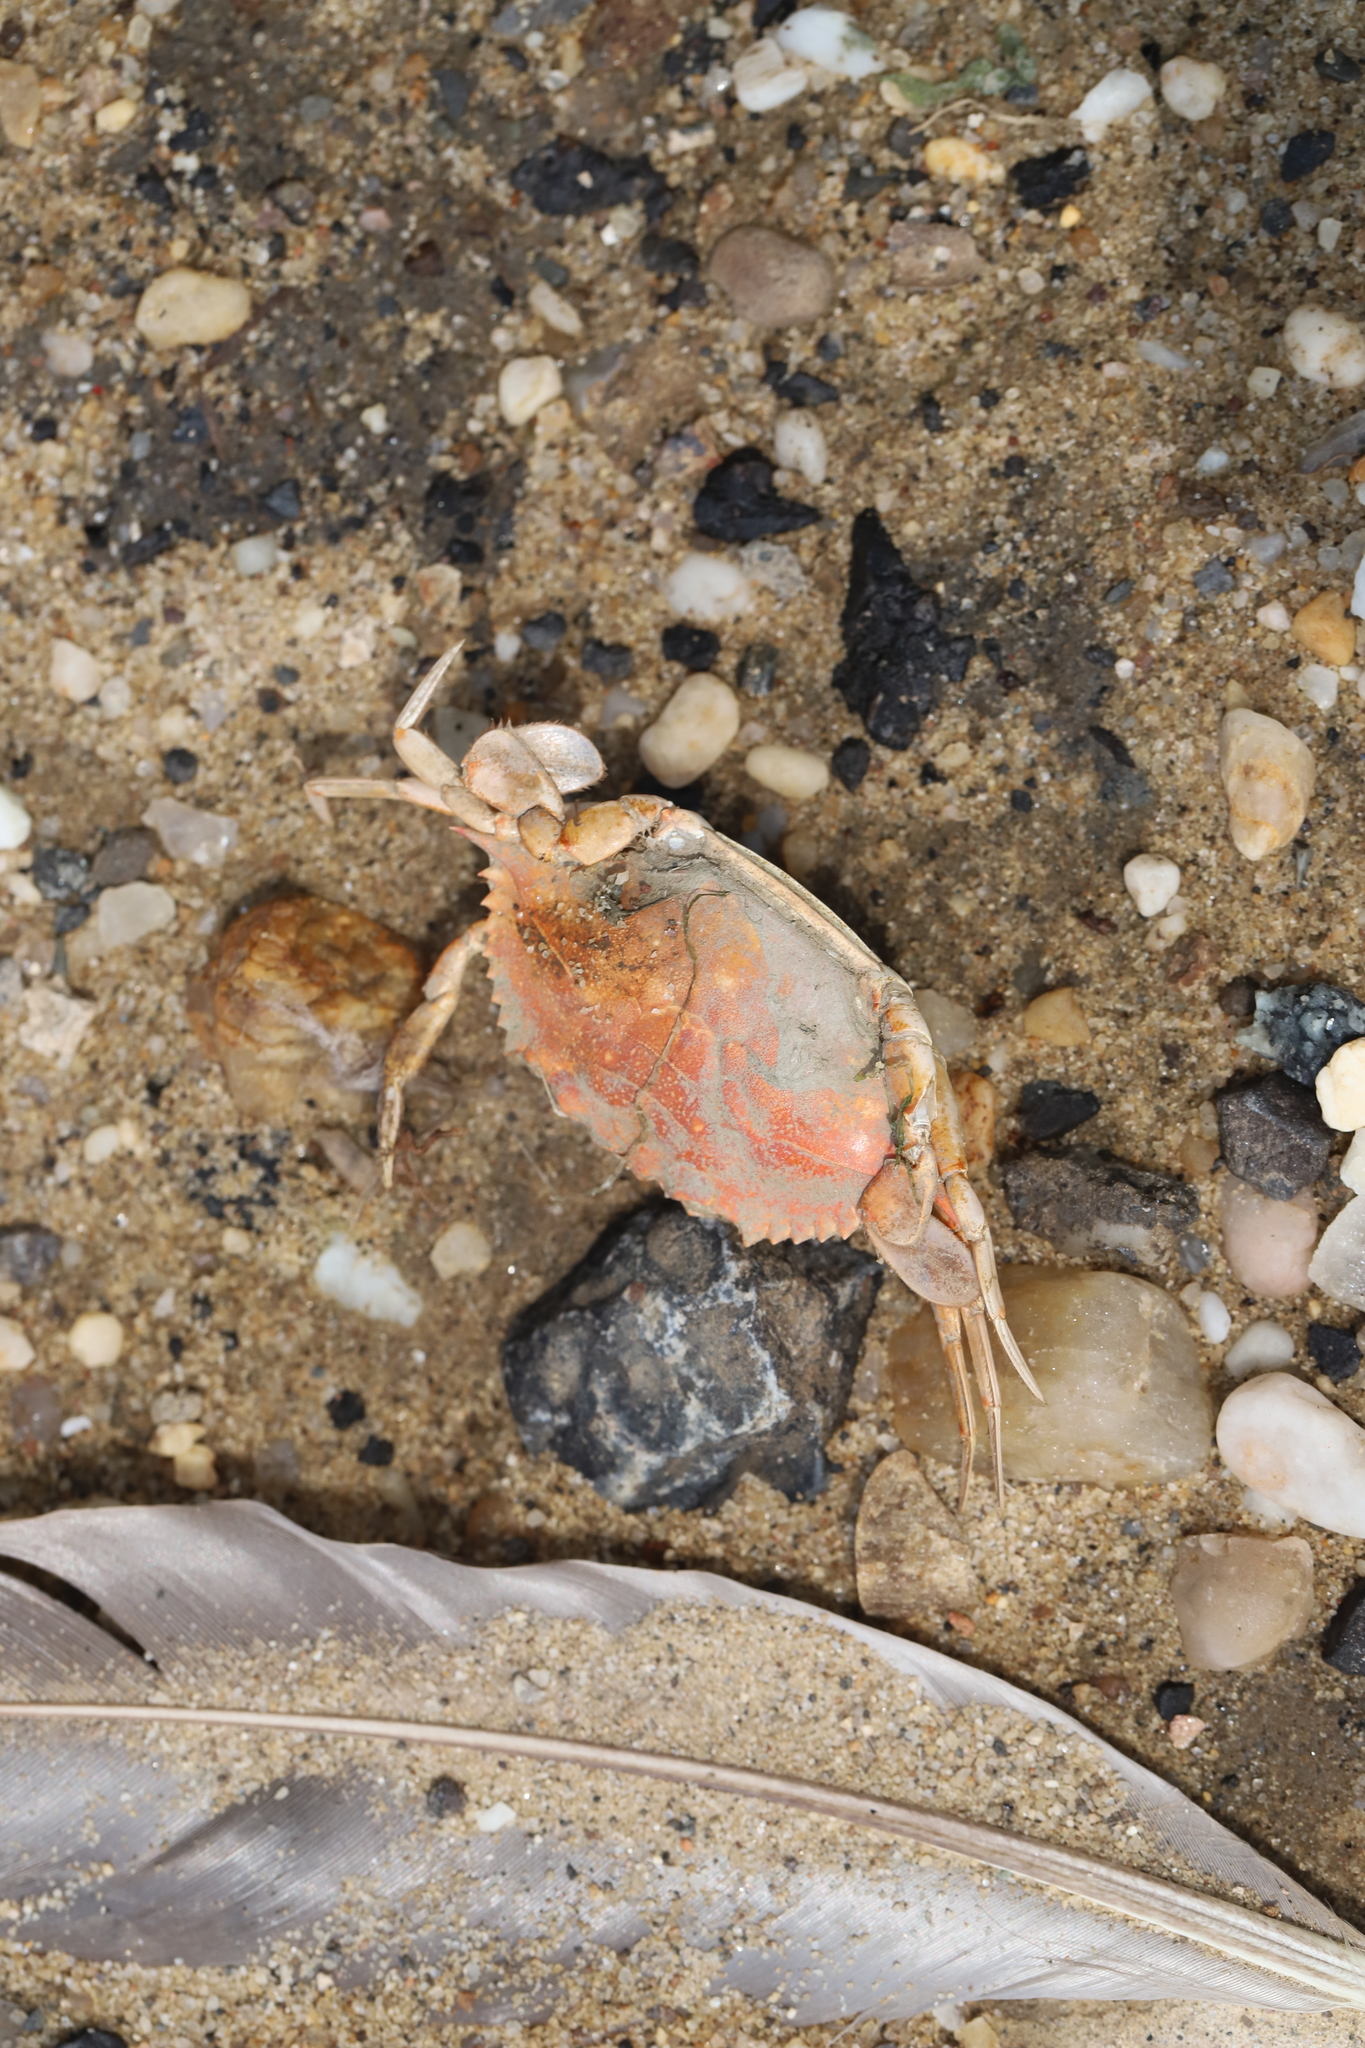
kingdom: Animalia
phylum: Arthropoda
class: Malacostraca
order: Decapoda
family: Portunidae
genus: Callinectes
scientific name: Callinectes sapidus
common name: Blue crab
